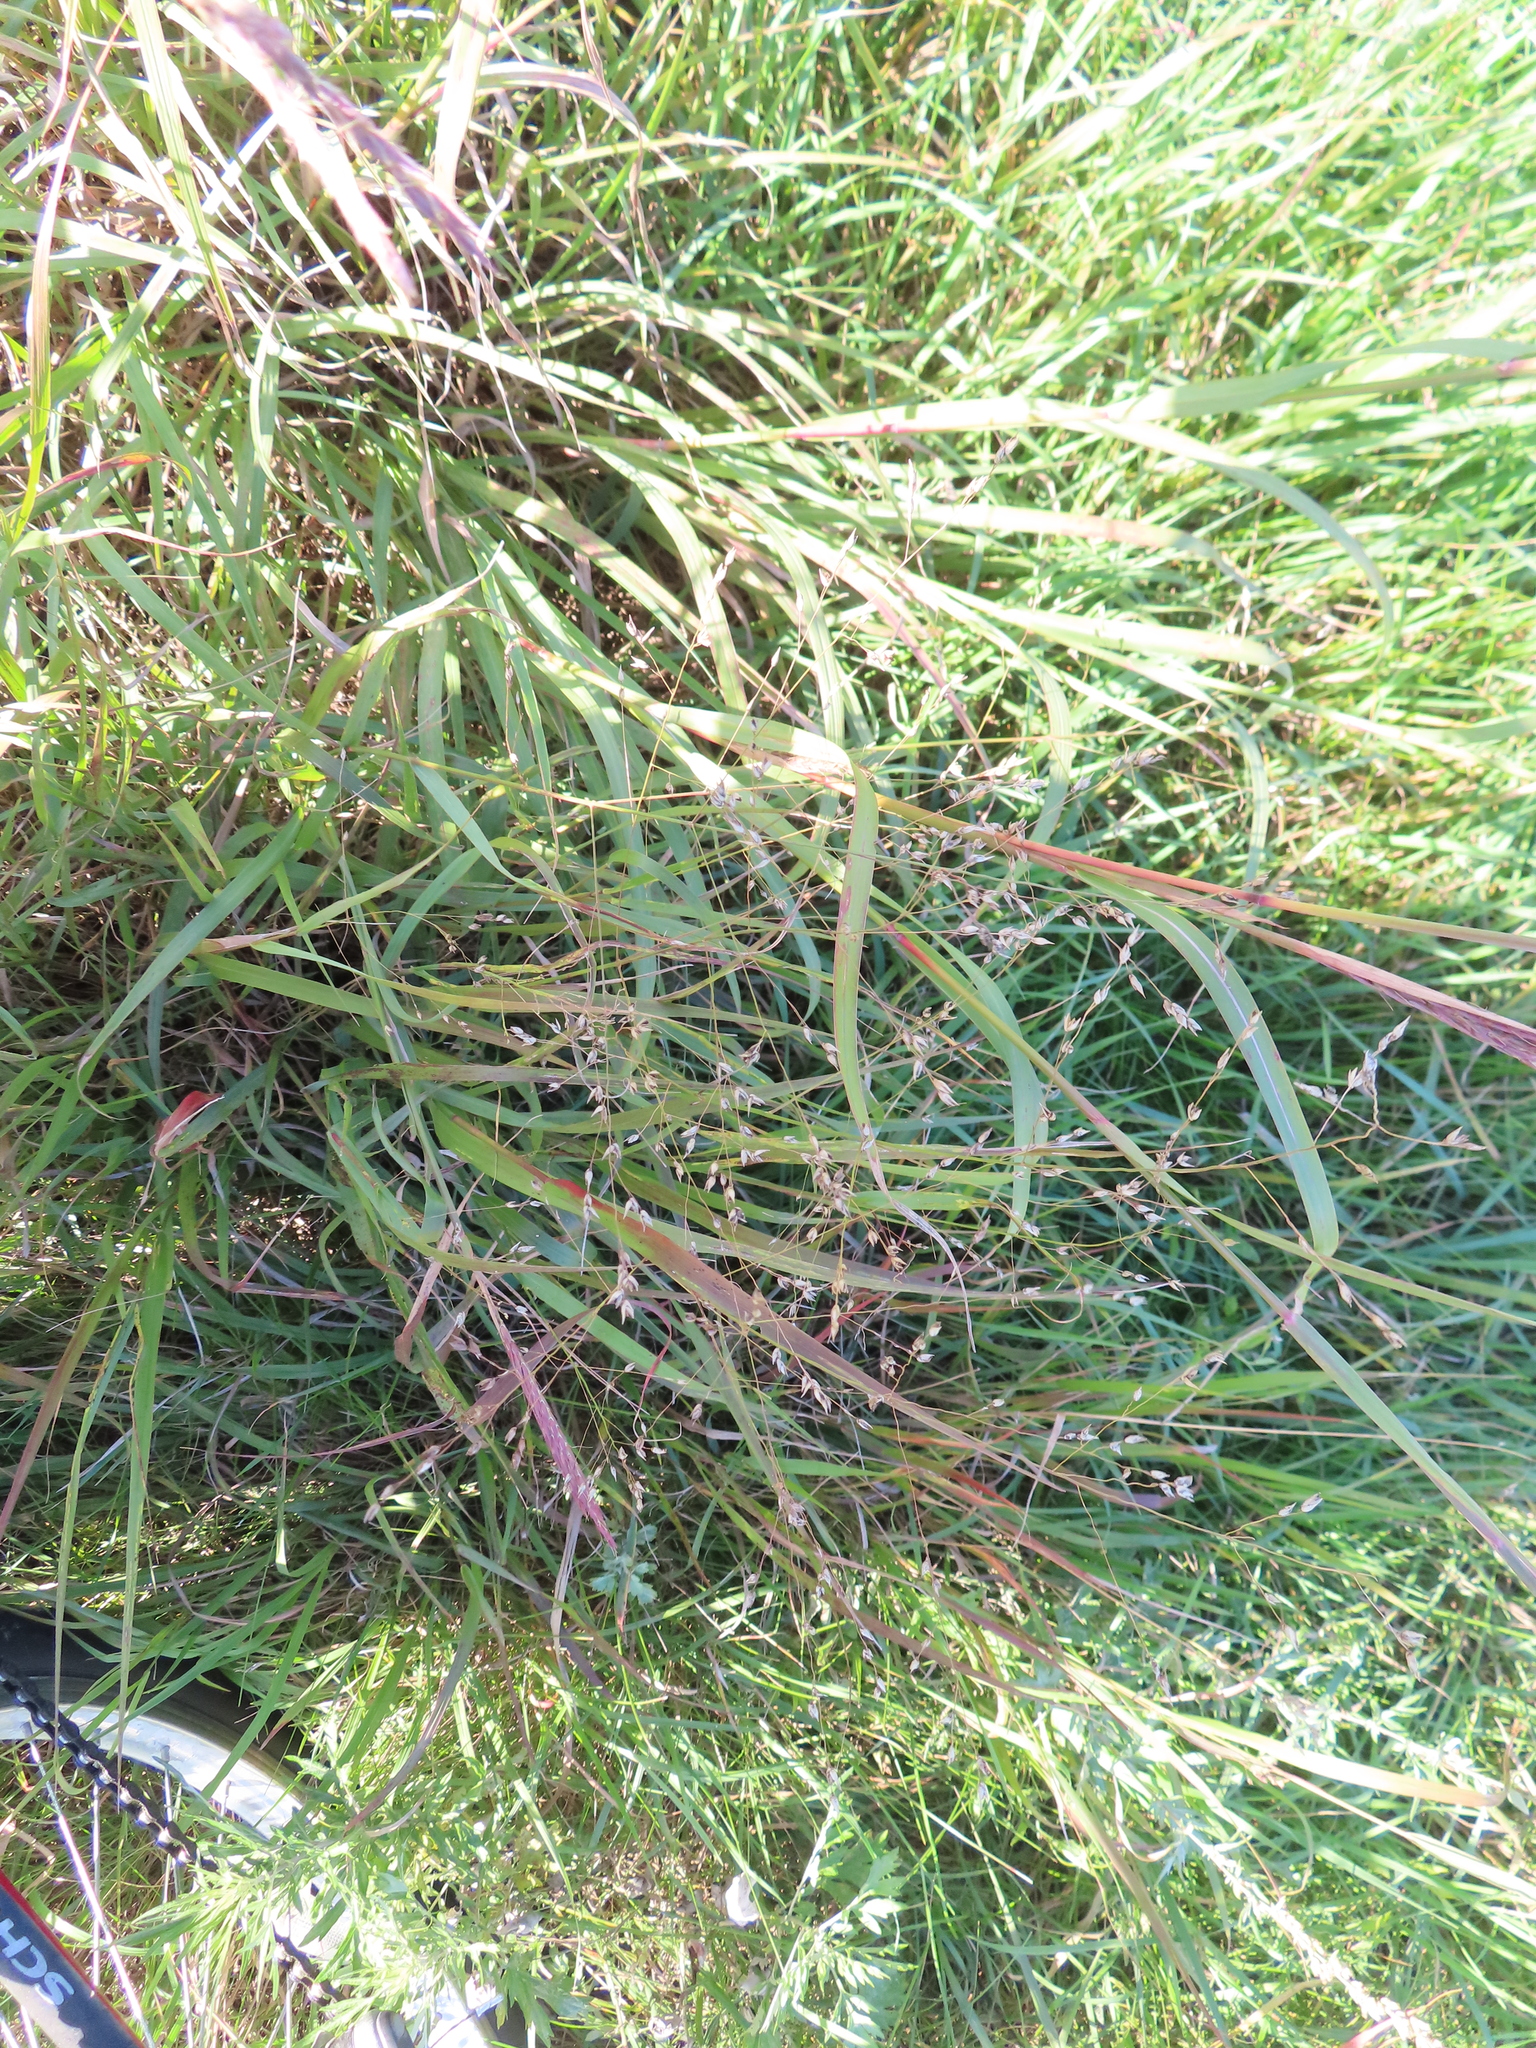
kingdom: Plantae
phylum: Tracheophyta
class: Liliopsida
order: Poales
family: Poaceae
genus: Panicum
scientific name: Panicum virgatum
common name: Switchgrass
